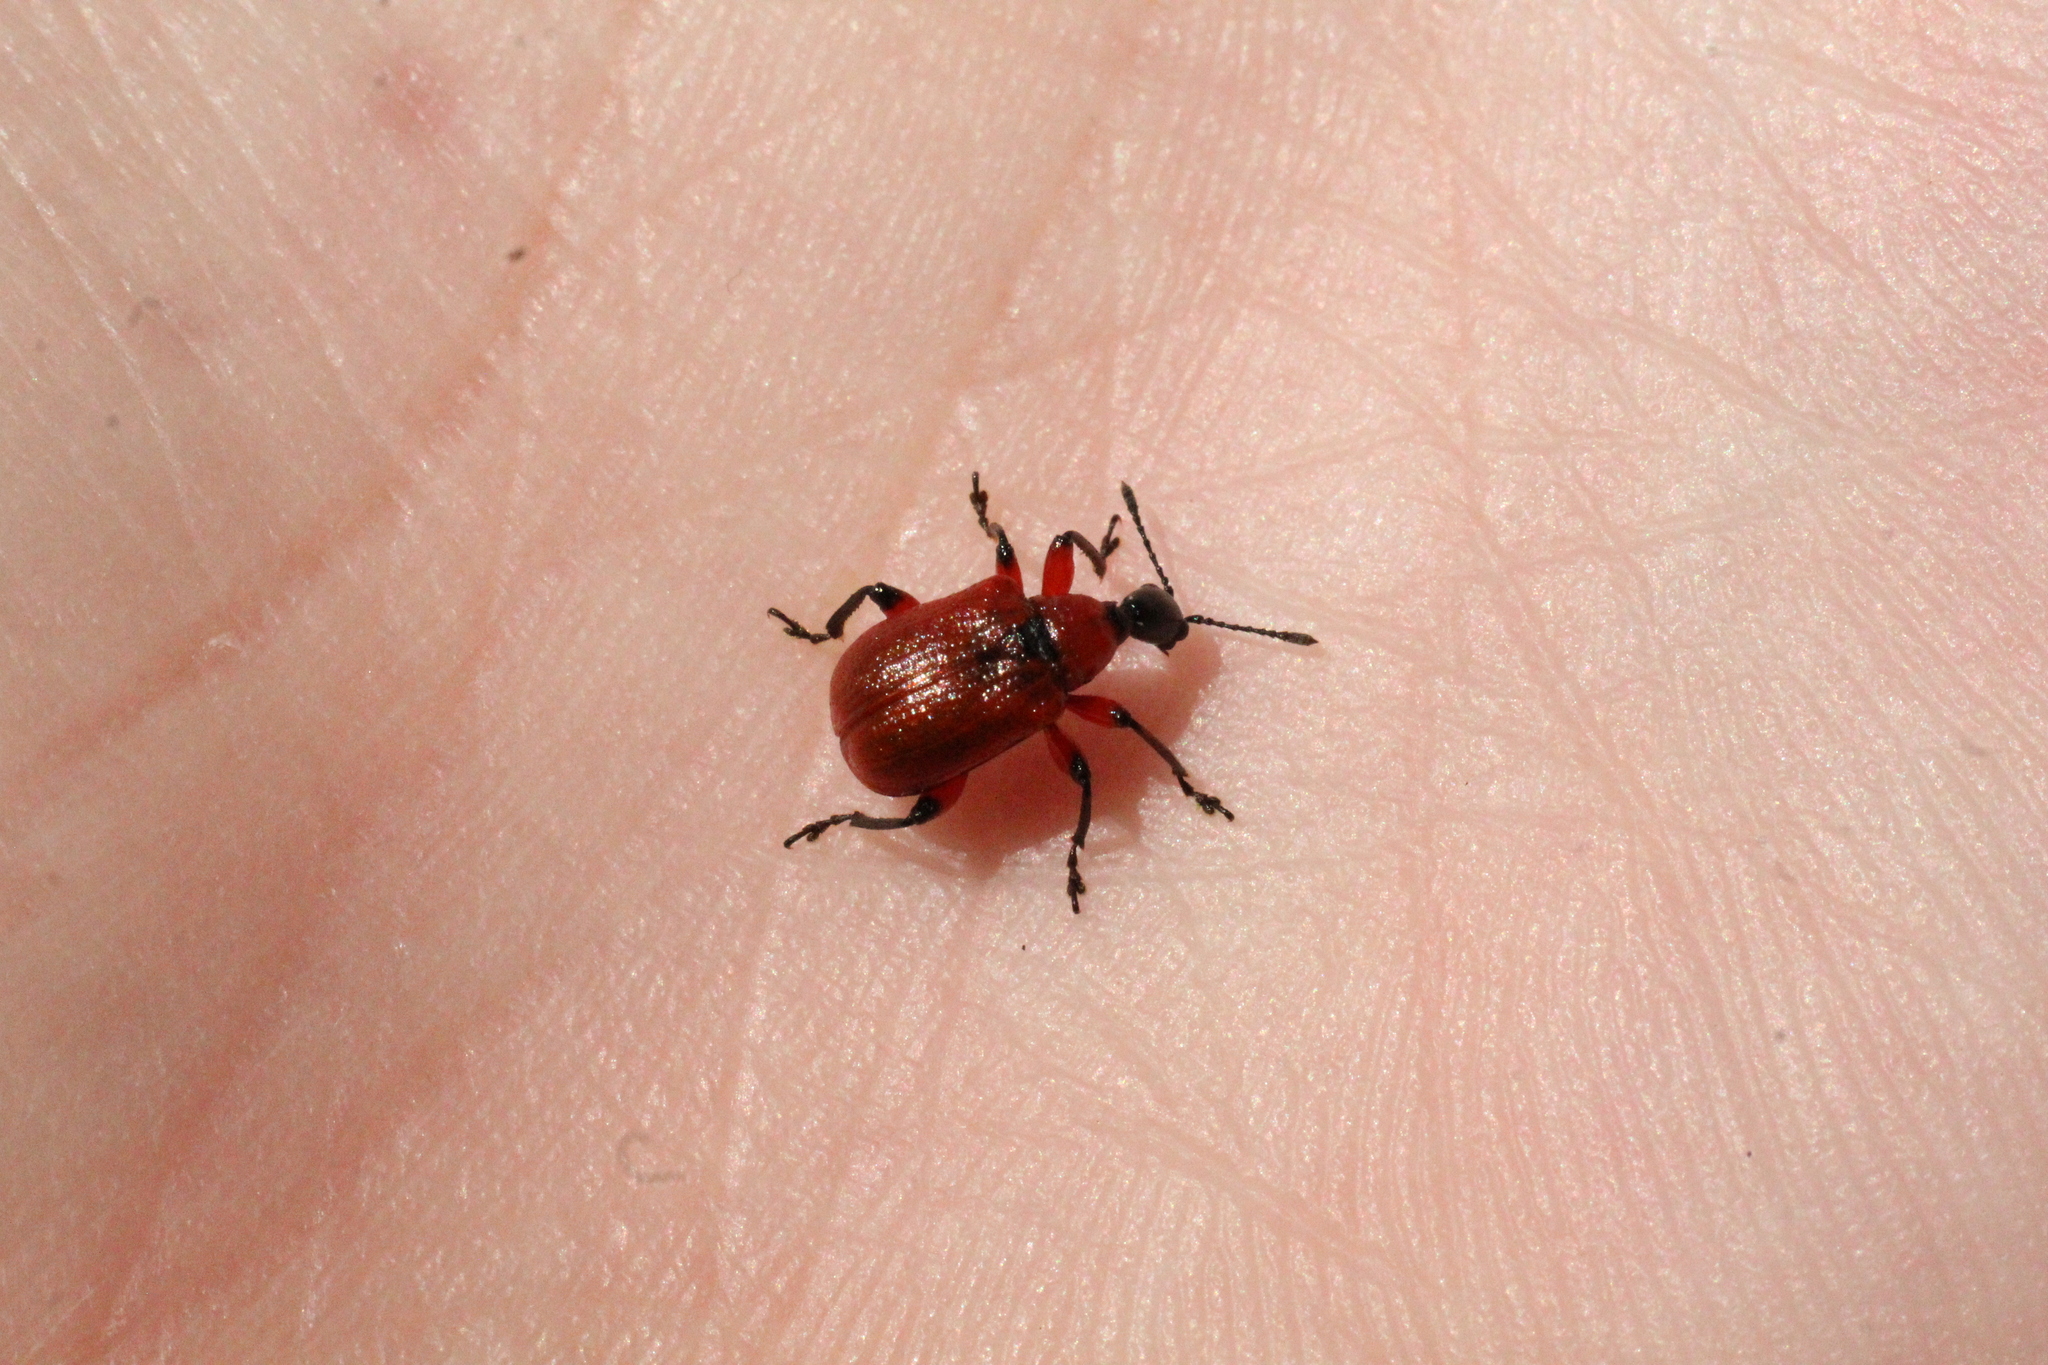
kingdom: Animalia
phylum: Arthropoda
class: Insecta
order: Coleoptera
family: Attelabidae
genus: Apoderus
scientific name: Apoderus coryli
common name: Hazel leaf roller
